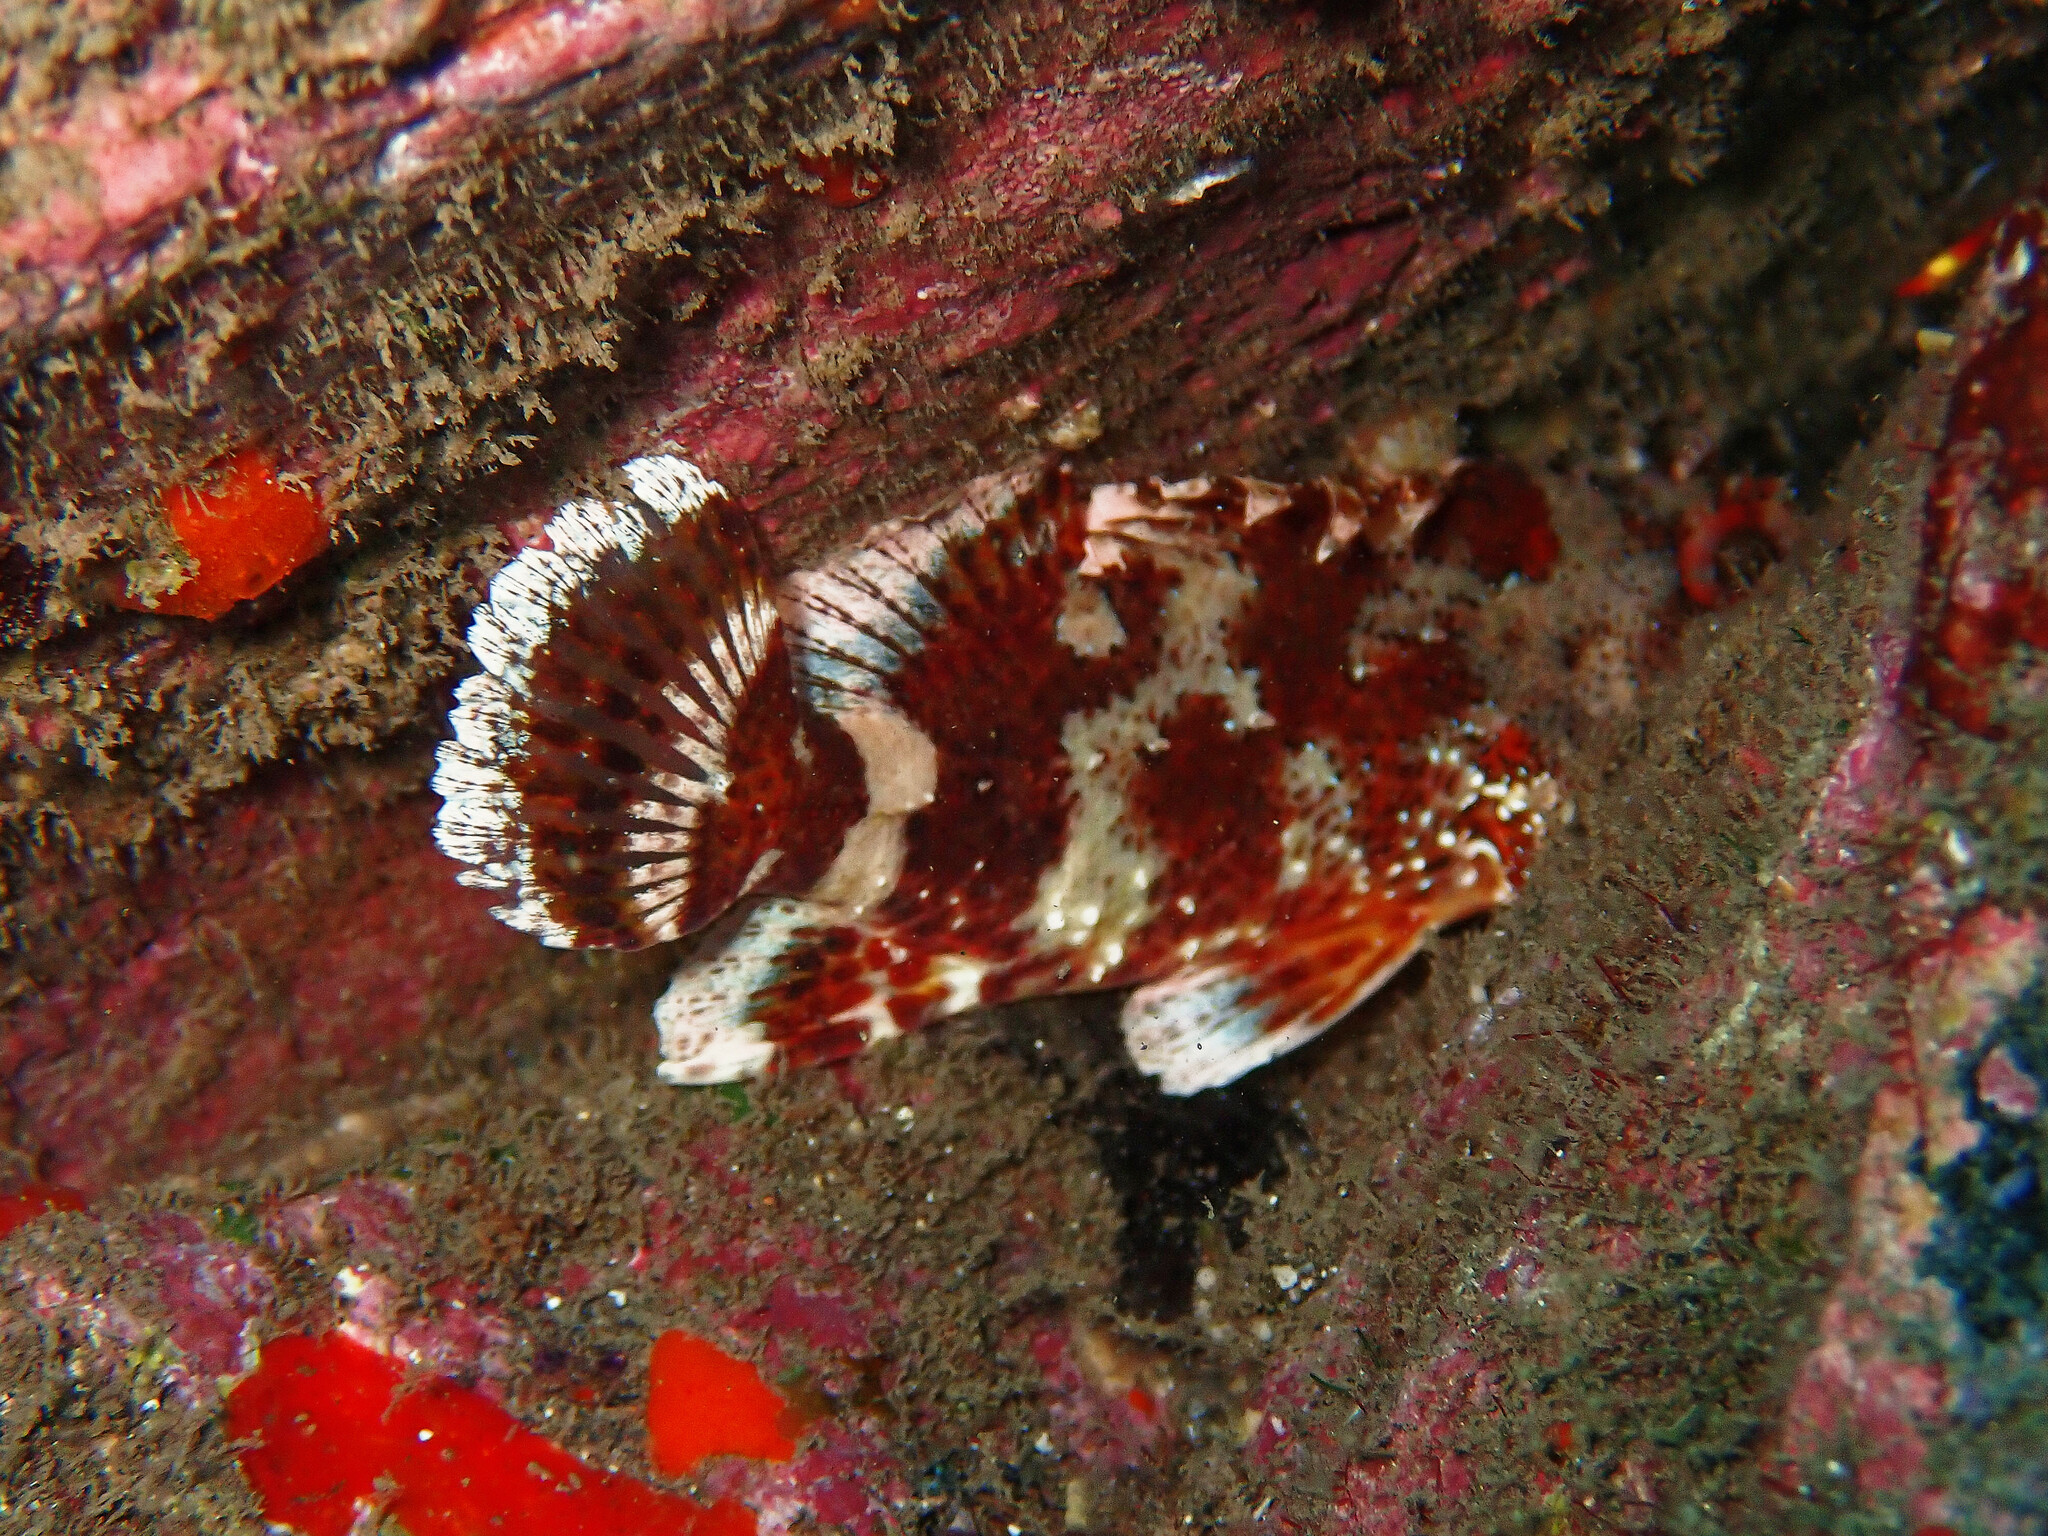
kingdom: Animalia
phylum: Chordata
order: Scorpaeniformes
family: Scorpaenidae
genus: Scorpaena
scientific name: Scorpaena maderensis
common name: Madeira rockfish
